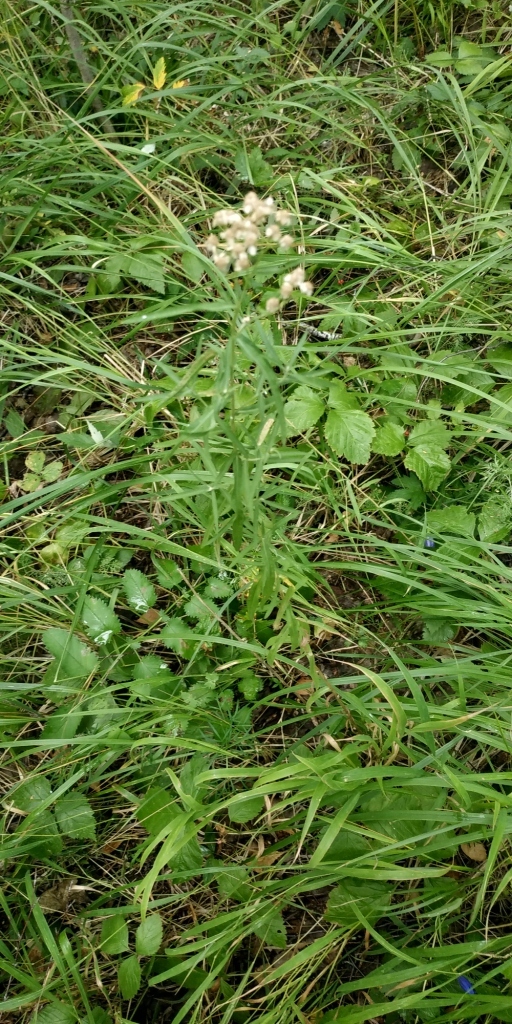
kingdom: Plantae
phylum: Tracheophyta
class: Magnoliopsida
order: Asterales
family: Asteraceae
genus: Achillea
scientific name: Achillea salicifolia
